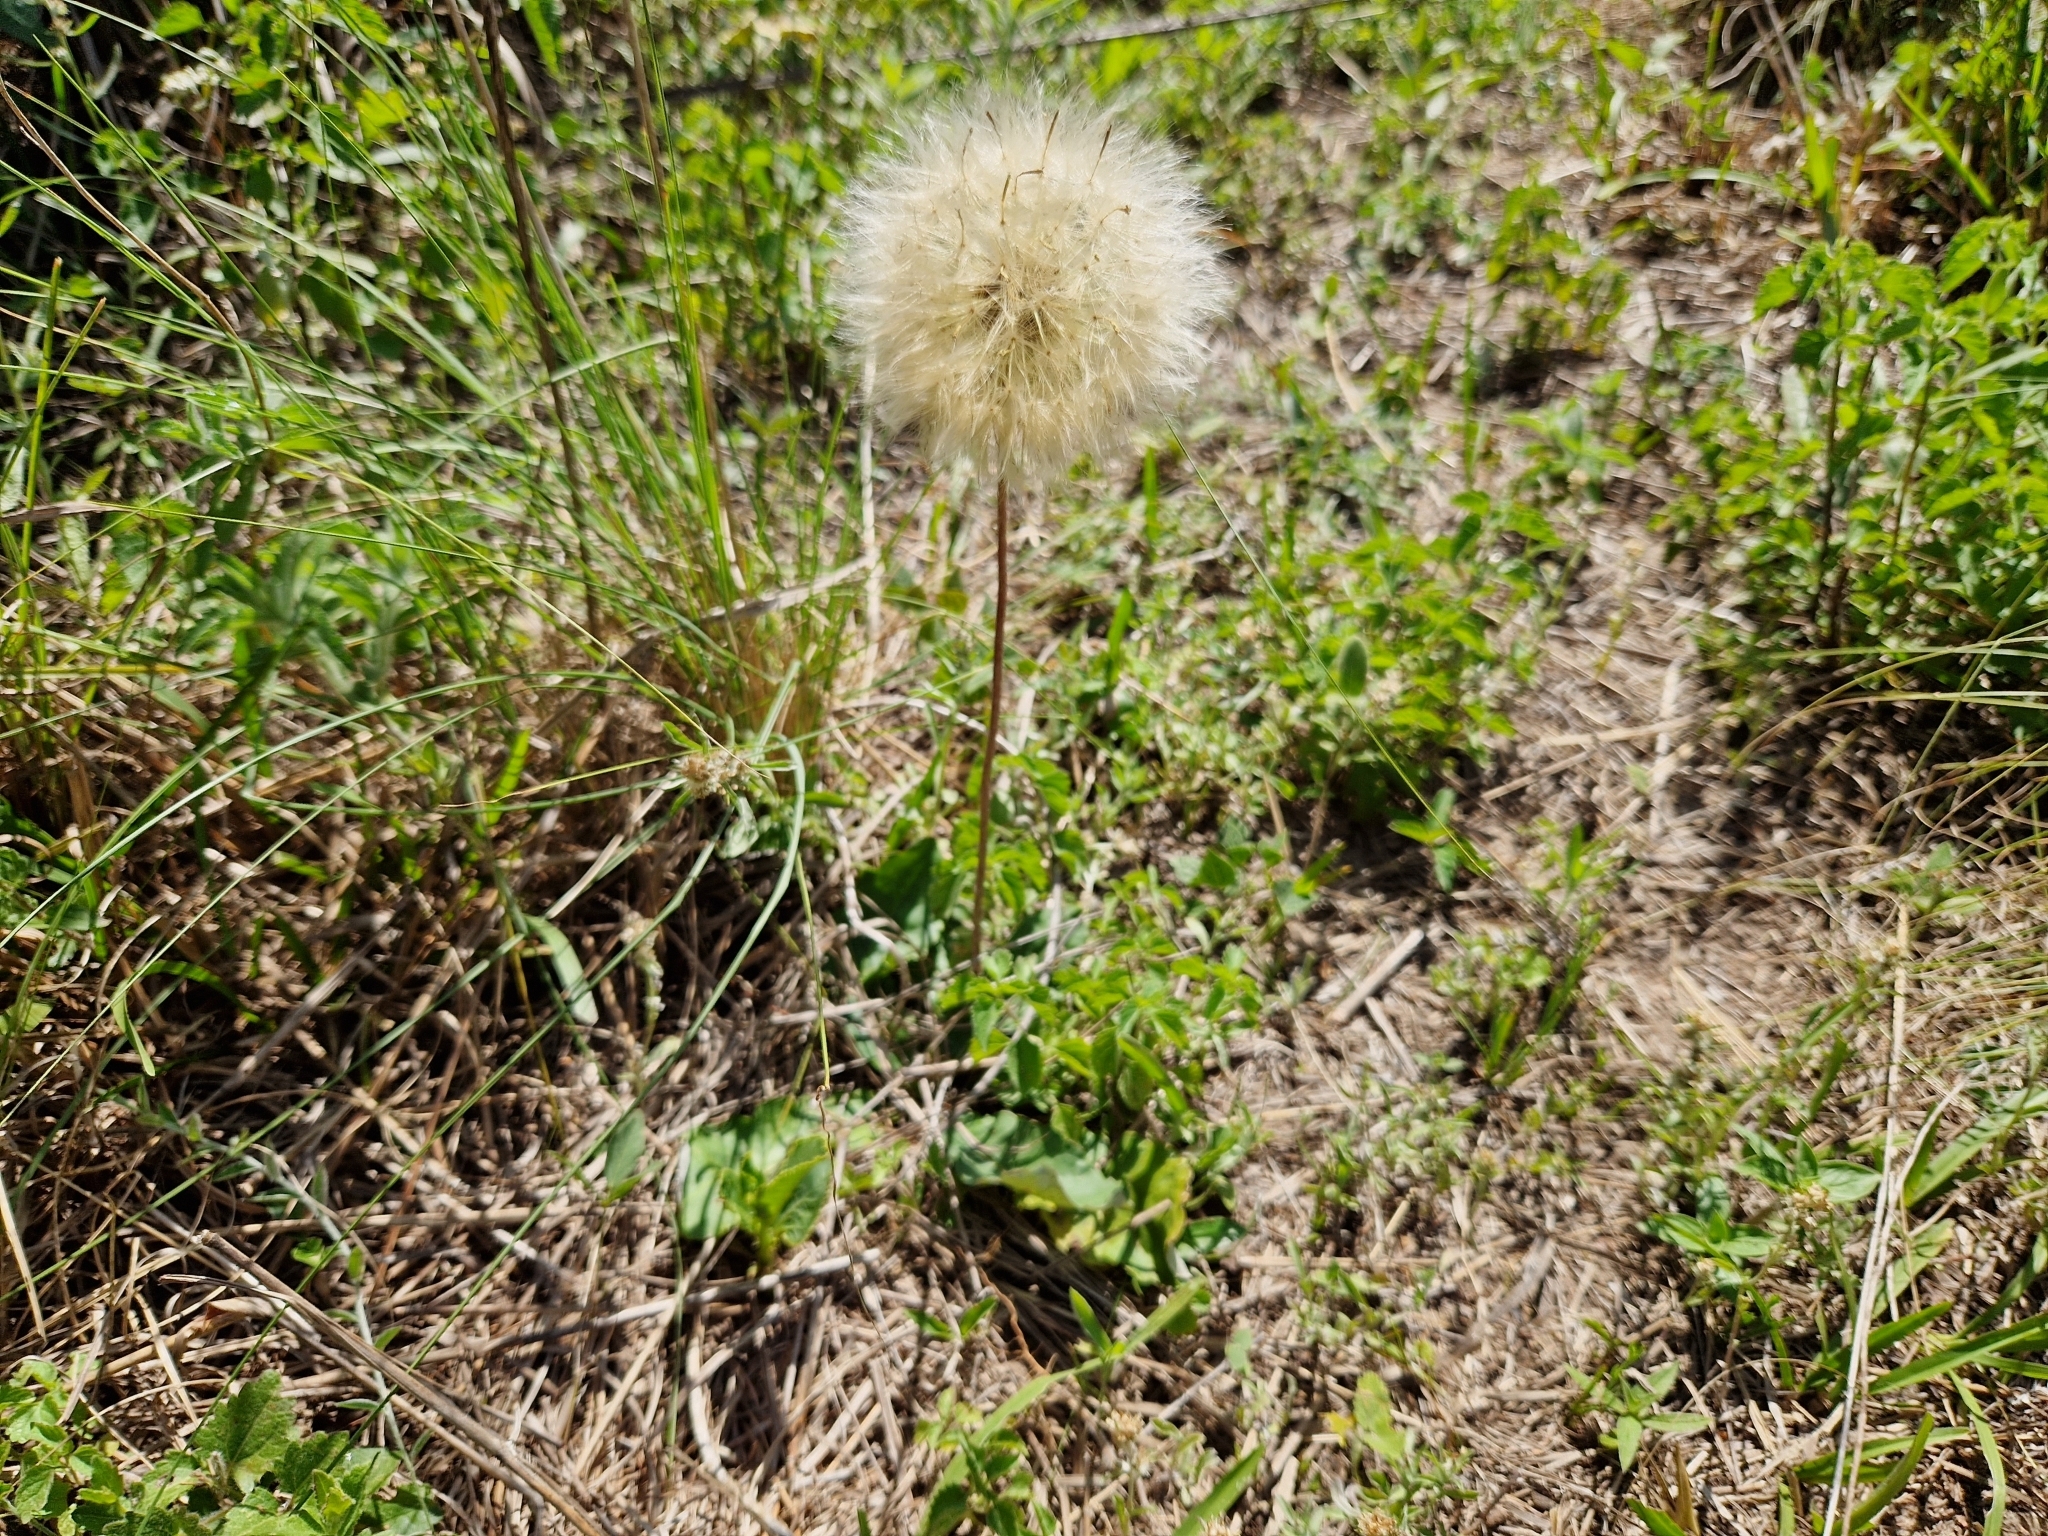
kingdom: Plantae
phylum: Tracheophyta
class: Magnoliopsida
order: Asterales
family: Asteraceae
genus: Chaptalia
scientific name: Chaptalia nutans
